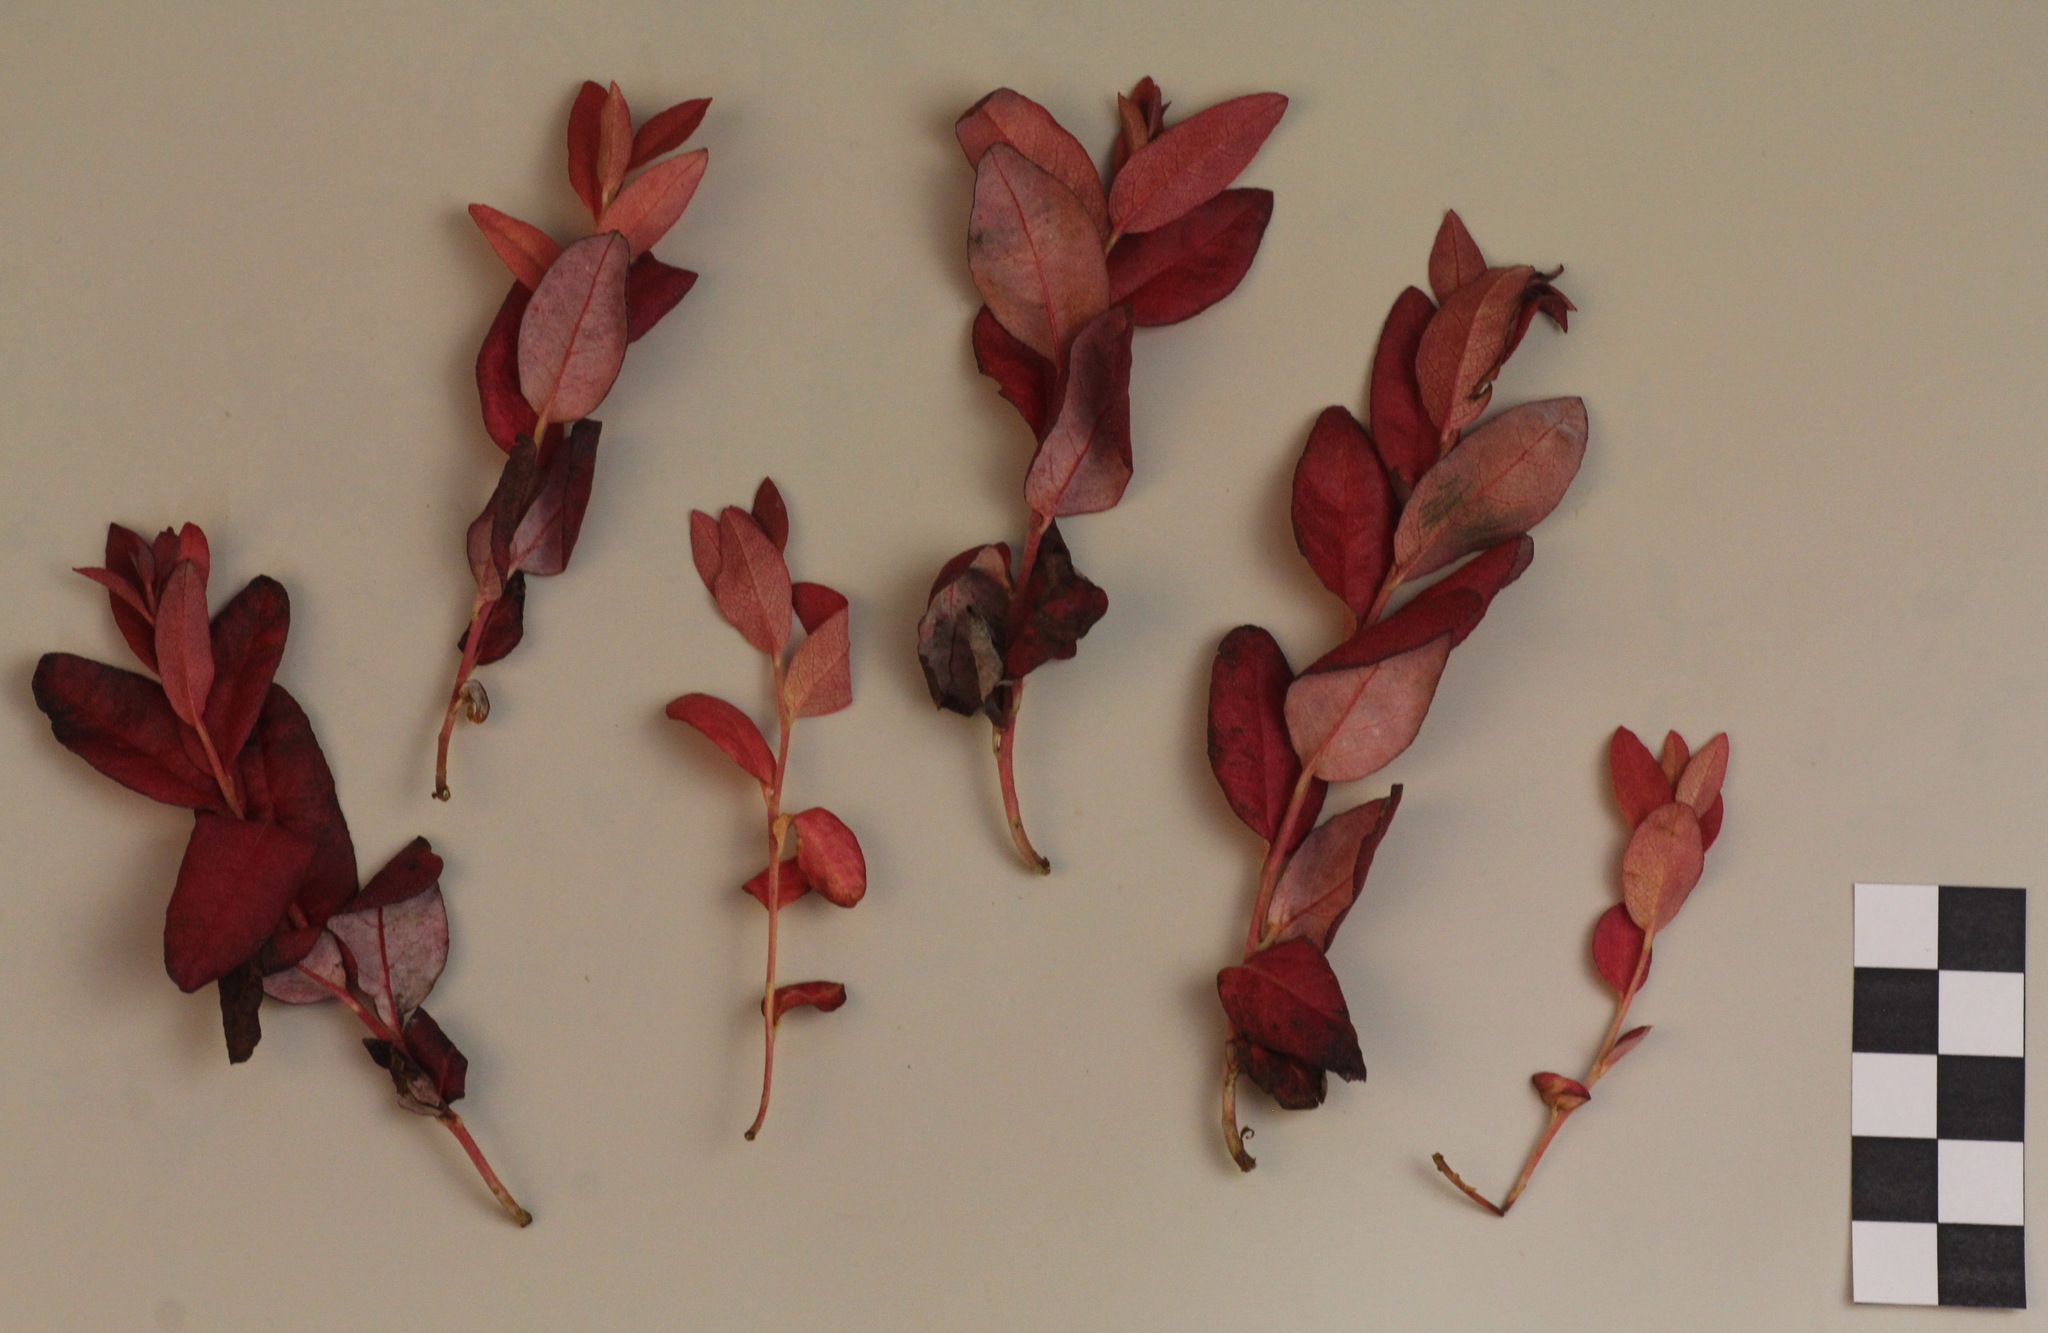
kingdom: Fungi
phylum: Basidiomycota
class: Exobasidiomycetes
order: Exobasidiales
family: Exobasidiaceae
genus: Exobasidium
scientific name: Exobasidium savilei
